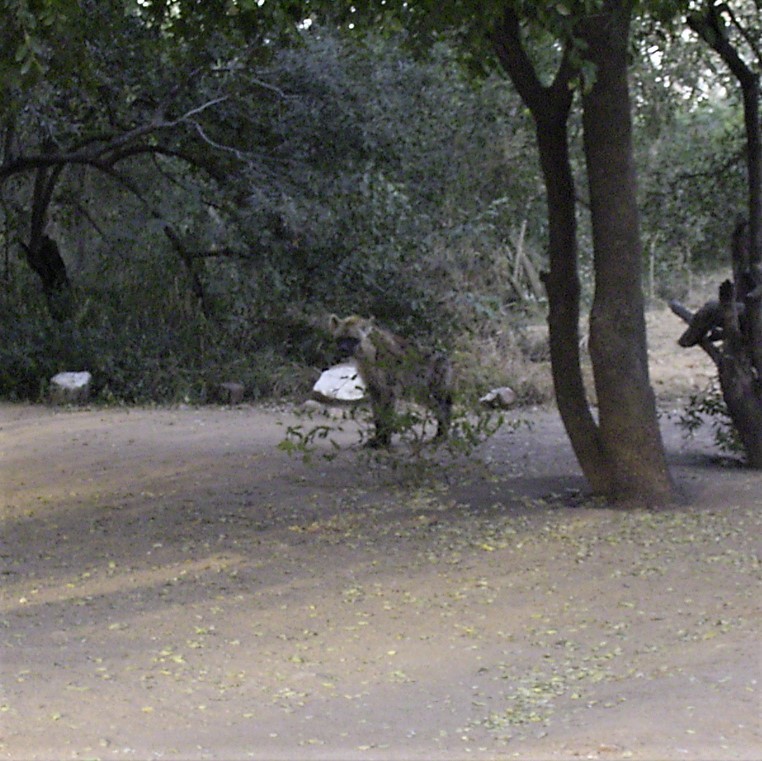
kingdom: Animalia
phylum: Chordata
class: Mammalia
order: Carnivora
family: Hyaenidae
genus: Crocuta
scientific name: Crocuta crocuta
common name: Spotted hyaena
